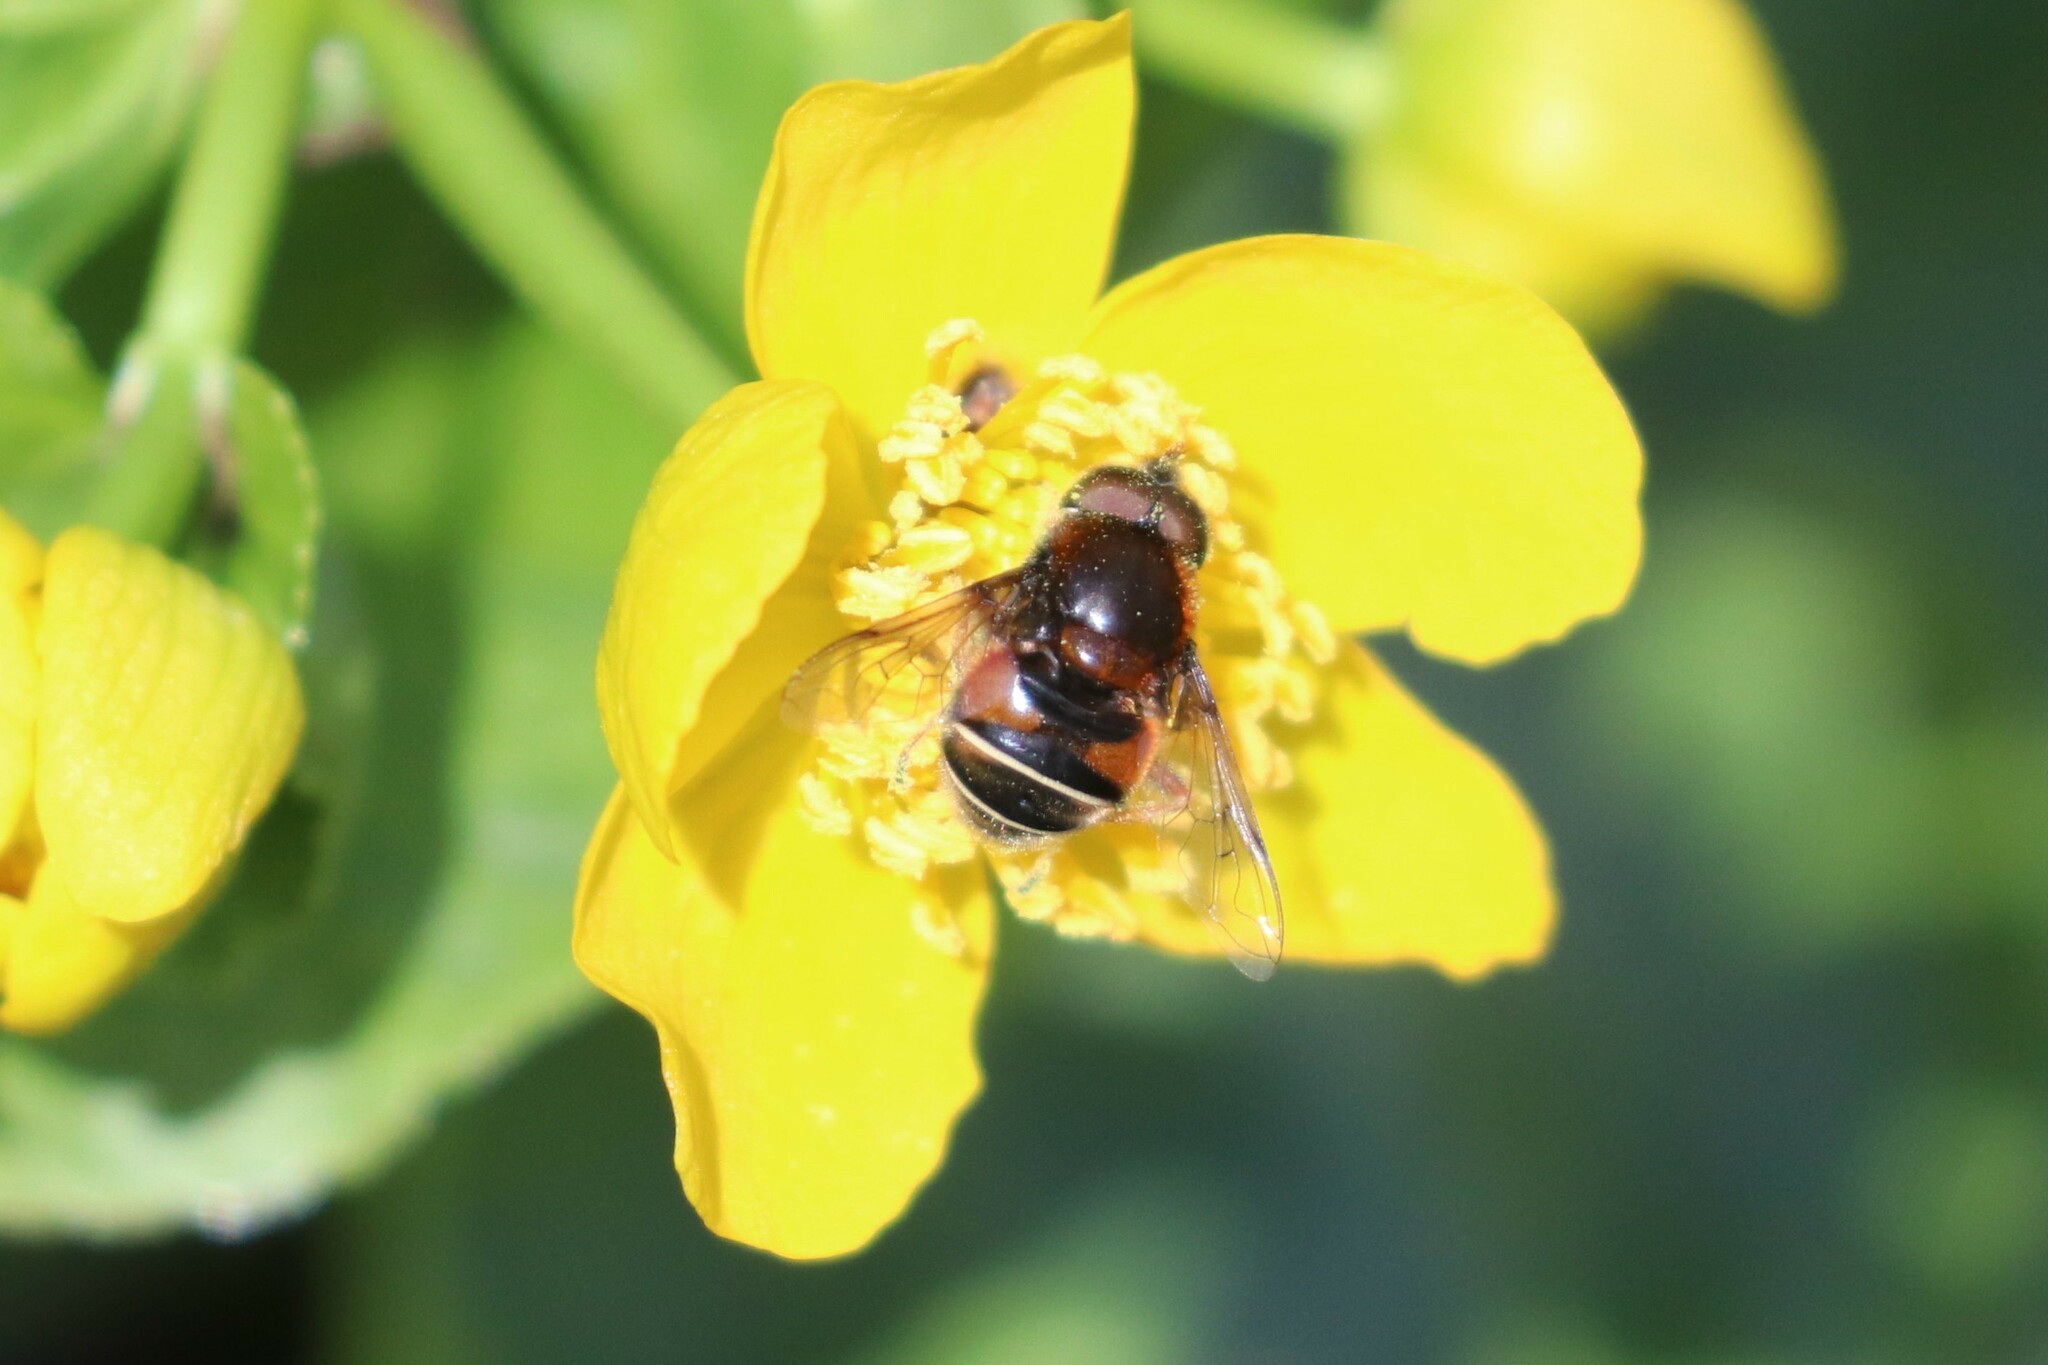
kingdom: Animalia
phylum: Arthropoda
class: Insecta
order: Diptera
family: Syrphidae
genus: Eristalis
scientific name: Eristalis cryptarum
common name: Bog hoverfly
